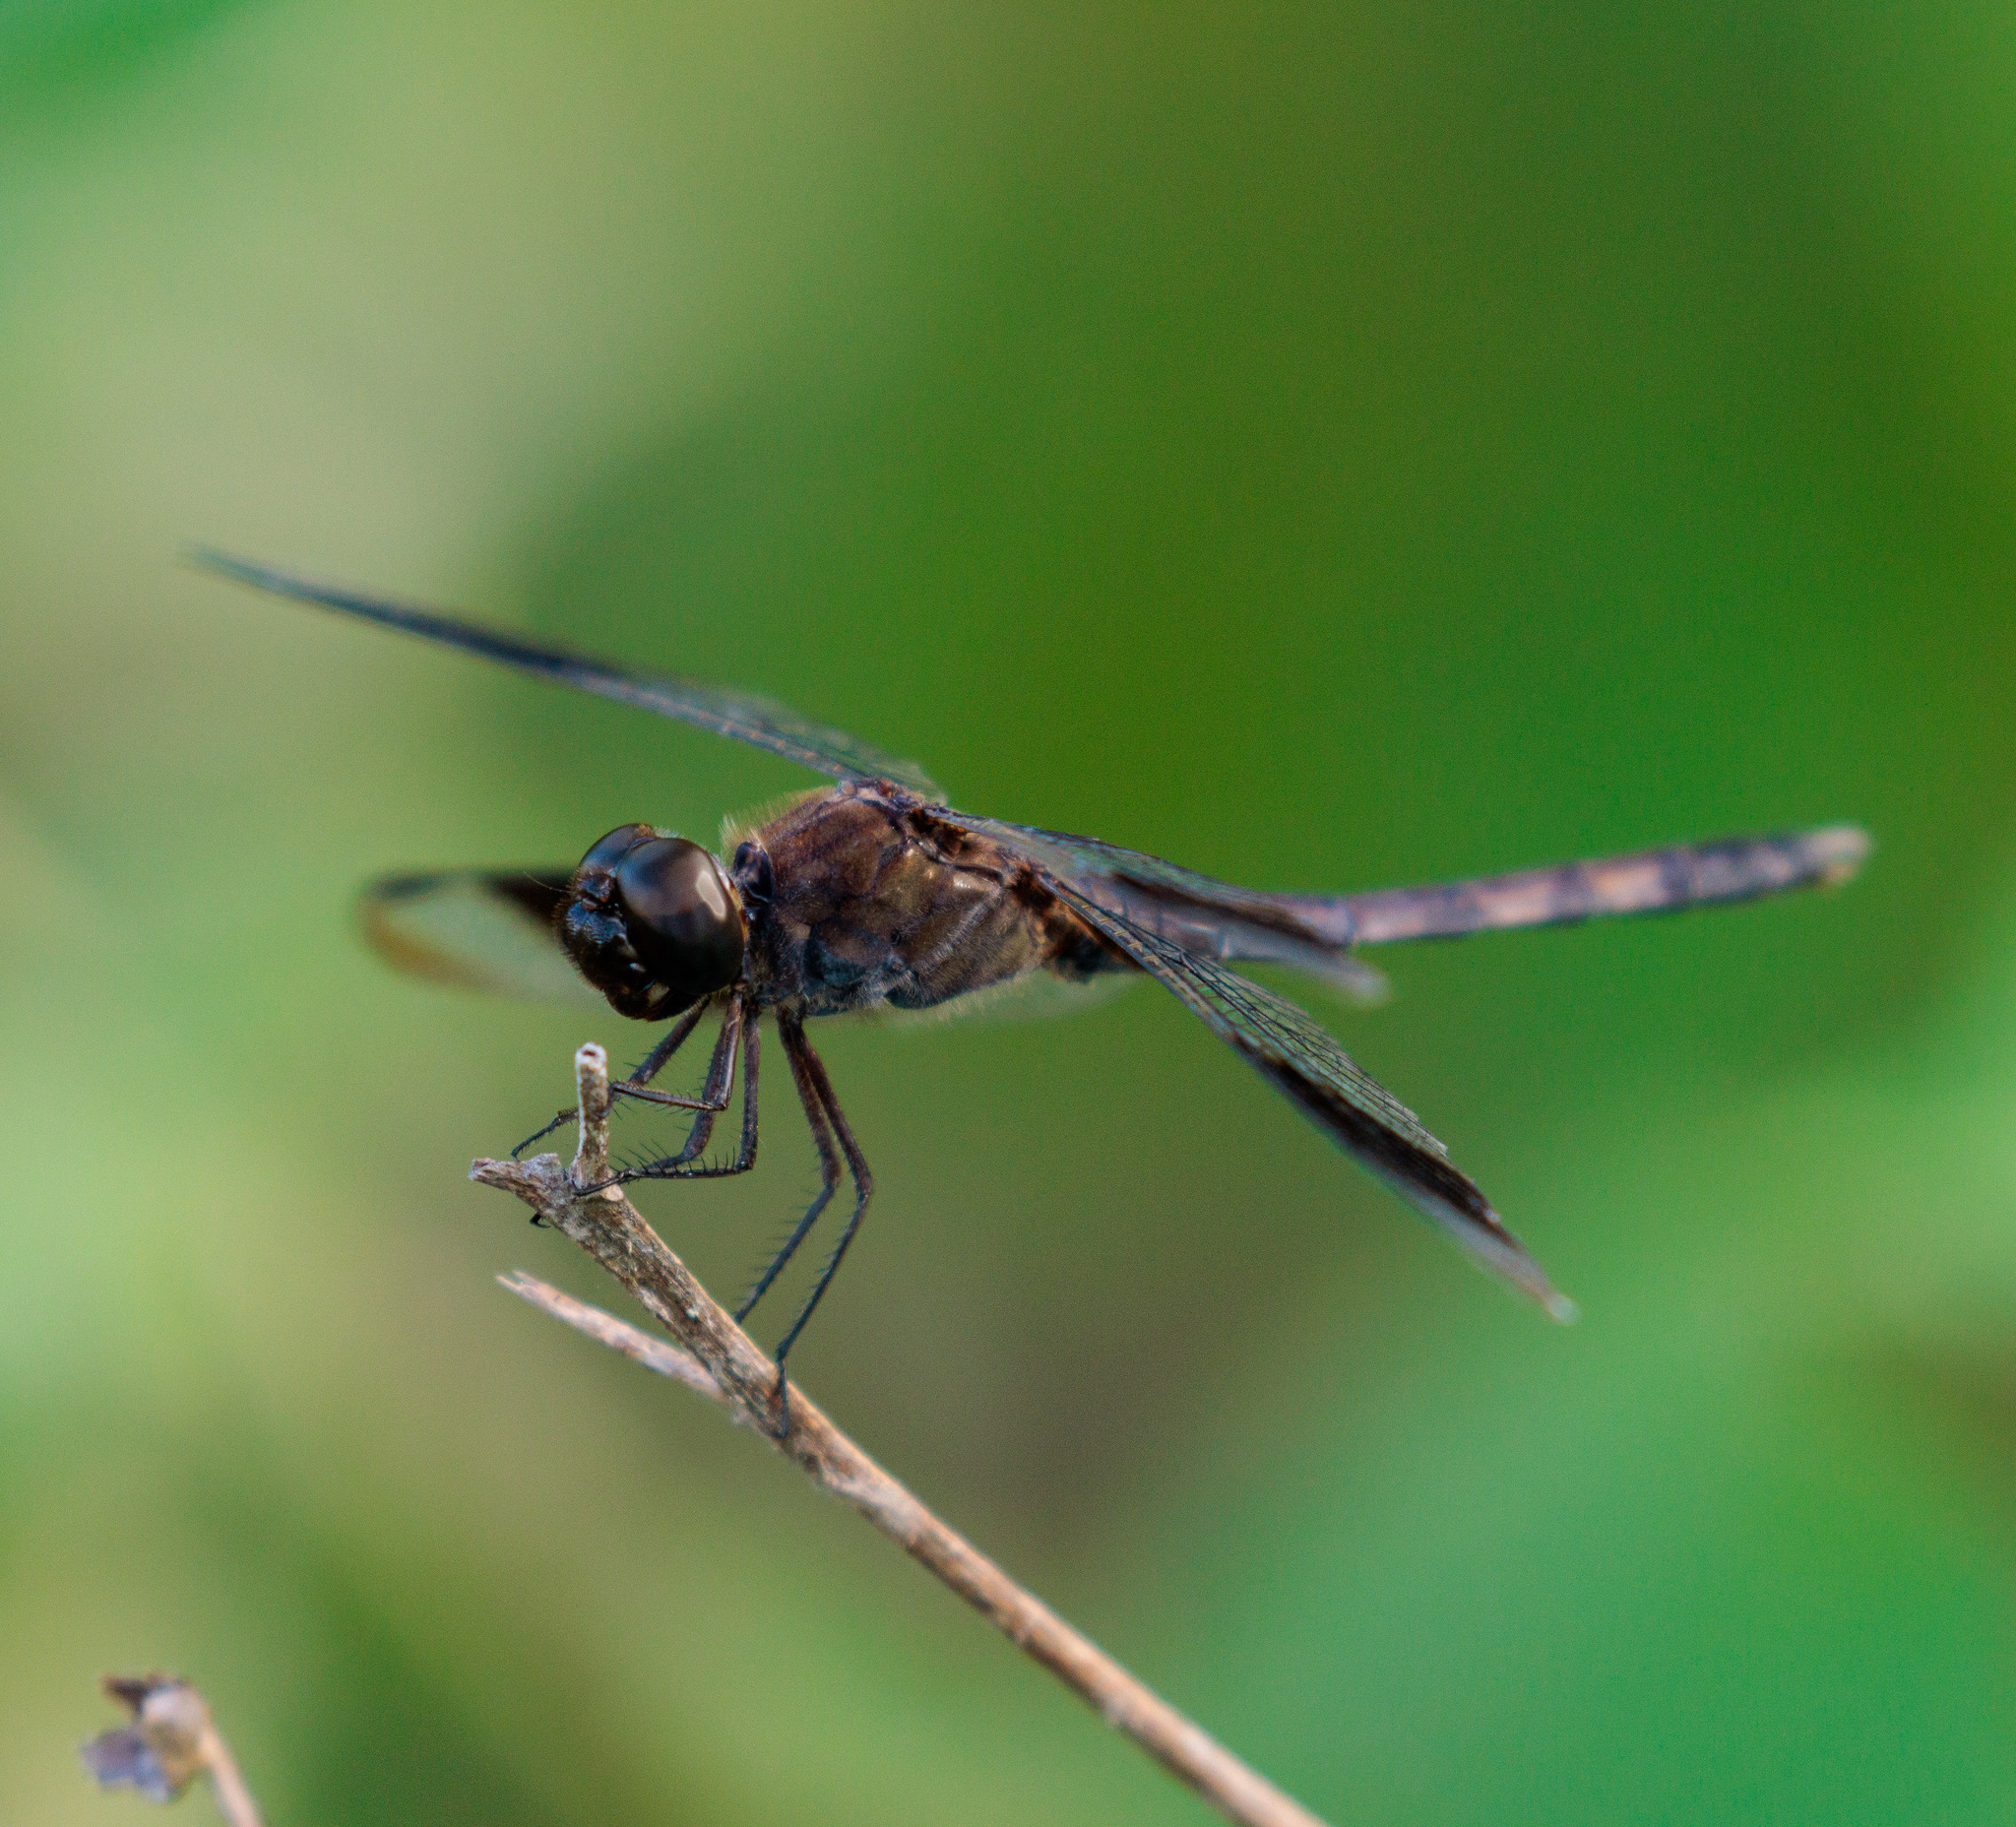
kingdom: Animalia
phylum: Arthropoda
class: Insecta
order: Odonata
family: Libellulidae
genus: Erythrodiplax
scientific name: Erythrodiplax umbrata
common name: Band-winged dragonlet
